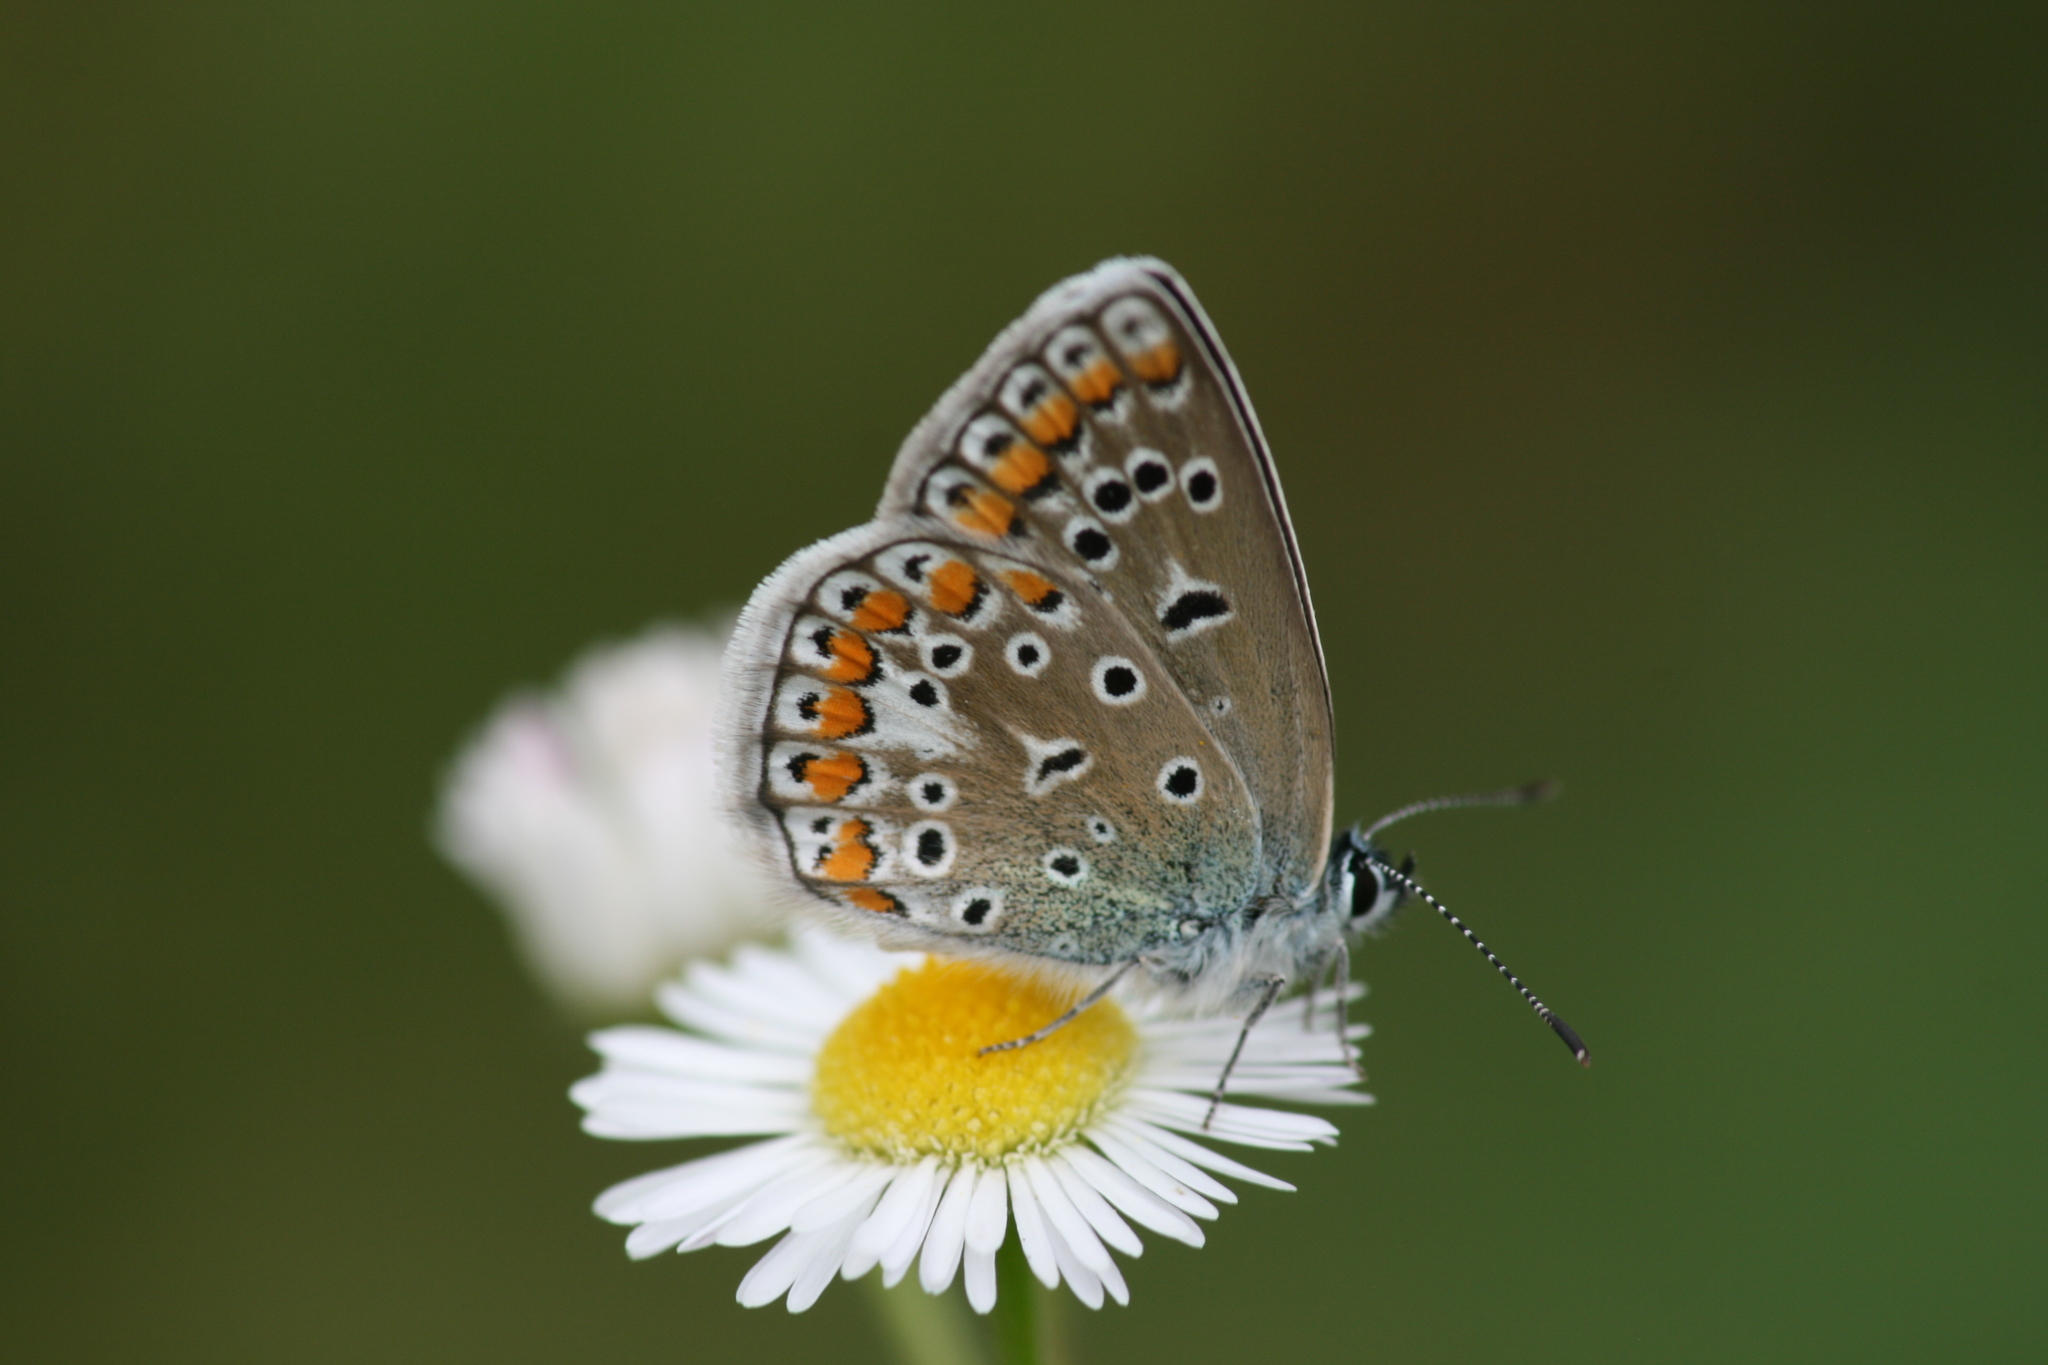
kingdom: Animalia
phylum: Arthropoda
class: Insecta
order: Lepidoptera
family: Lycaenidae
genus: Polyommatus
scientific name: Polyommatus icarus
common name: Common blue
